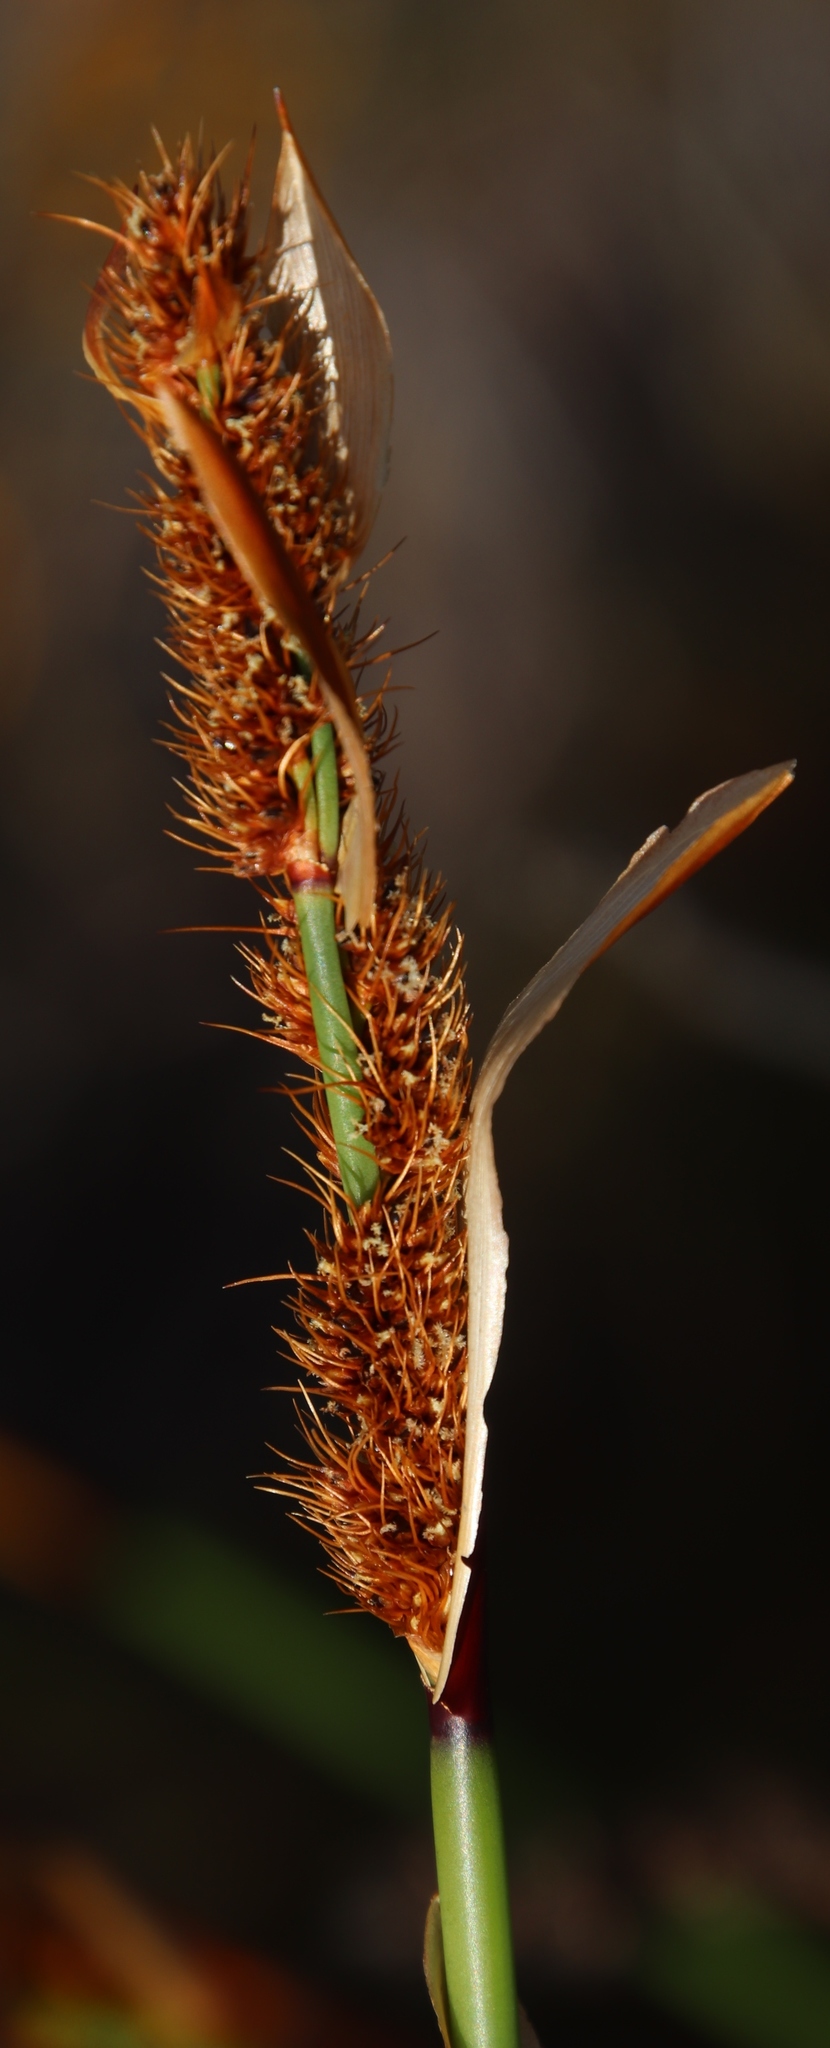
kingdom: Plantae
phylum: Tracheophyta
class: Liliopsida
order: Poales
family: Restionaceae
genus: Elegia
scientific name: Elegia cuspidata
